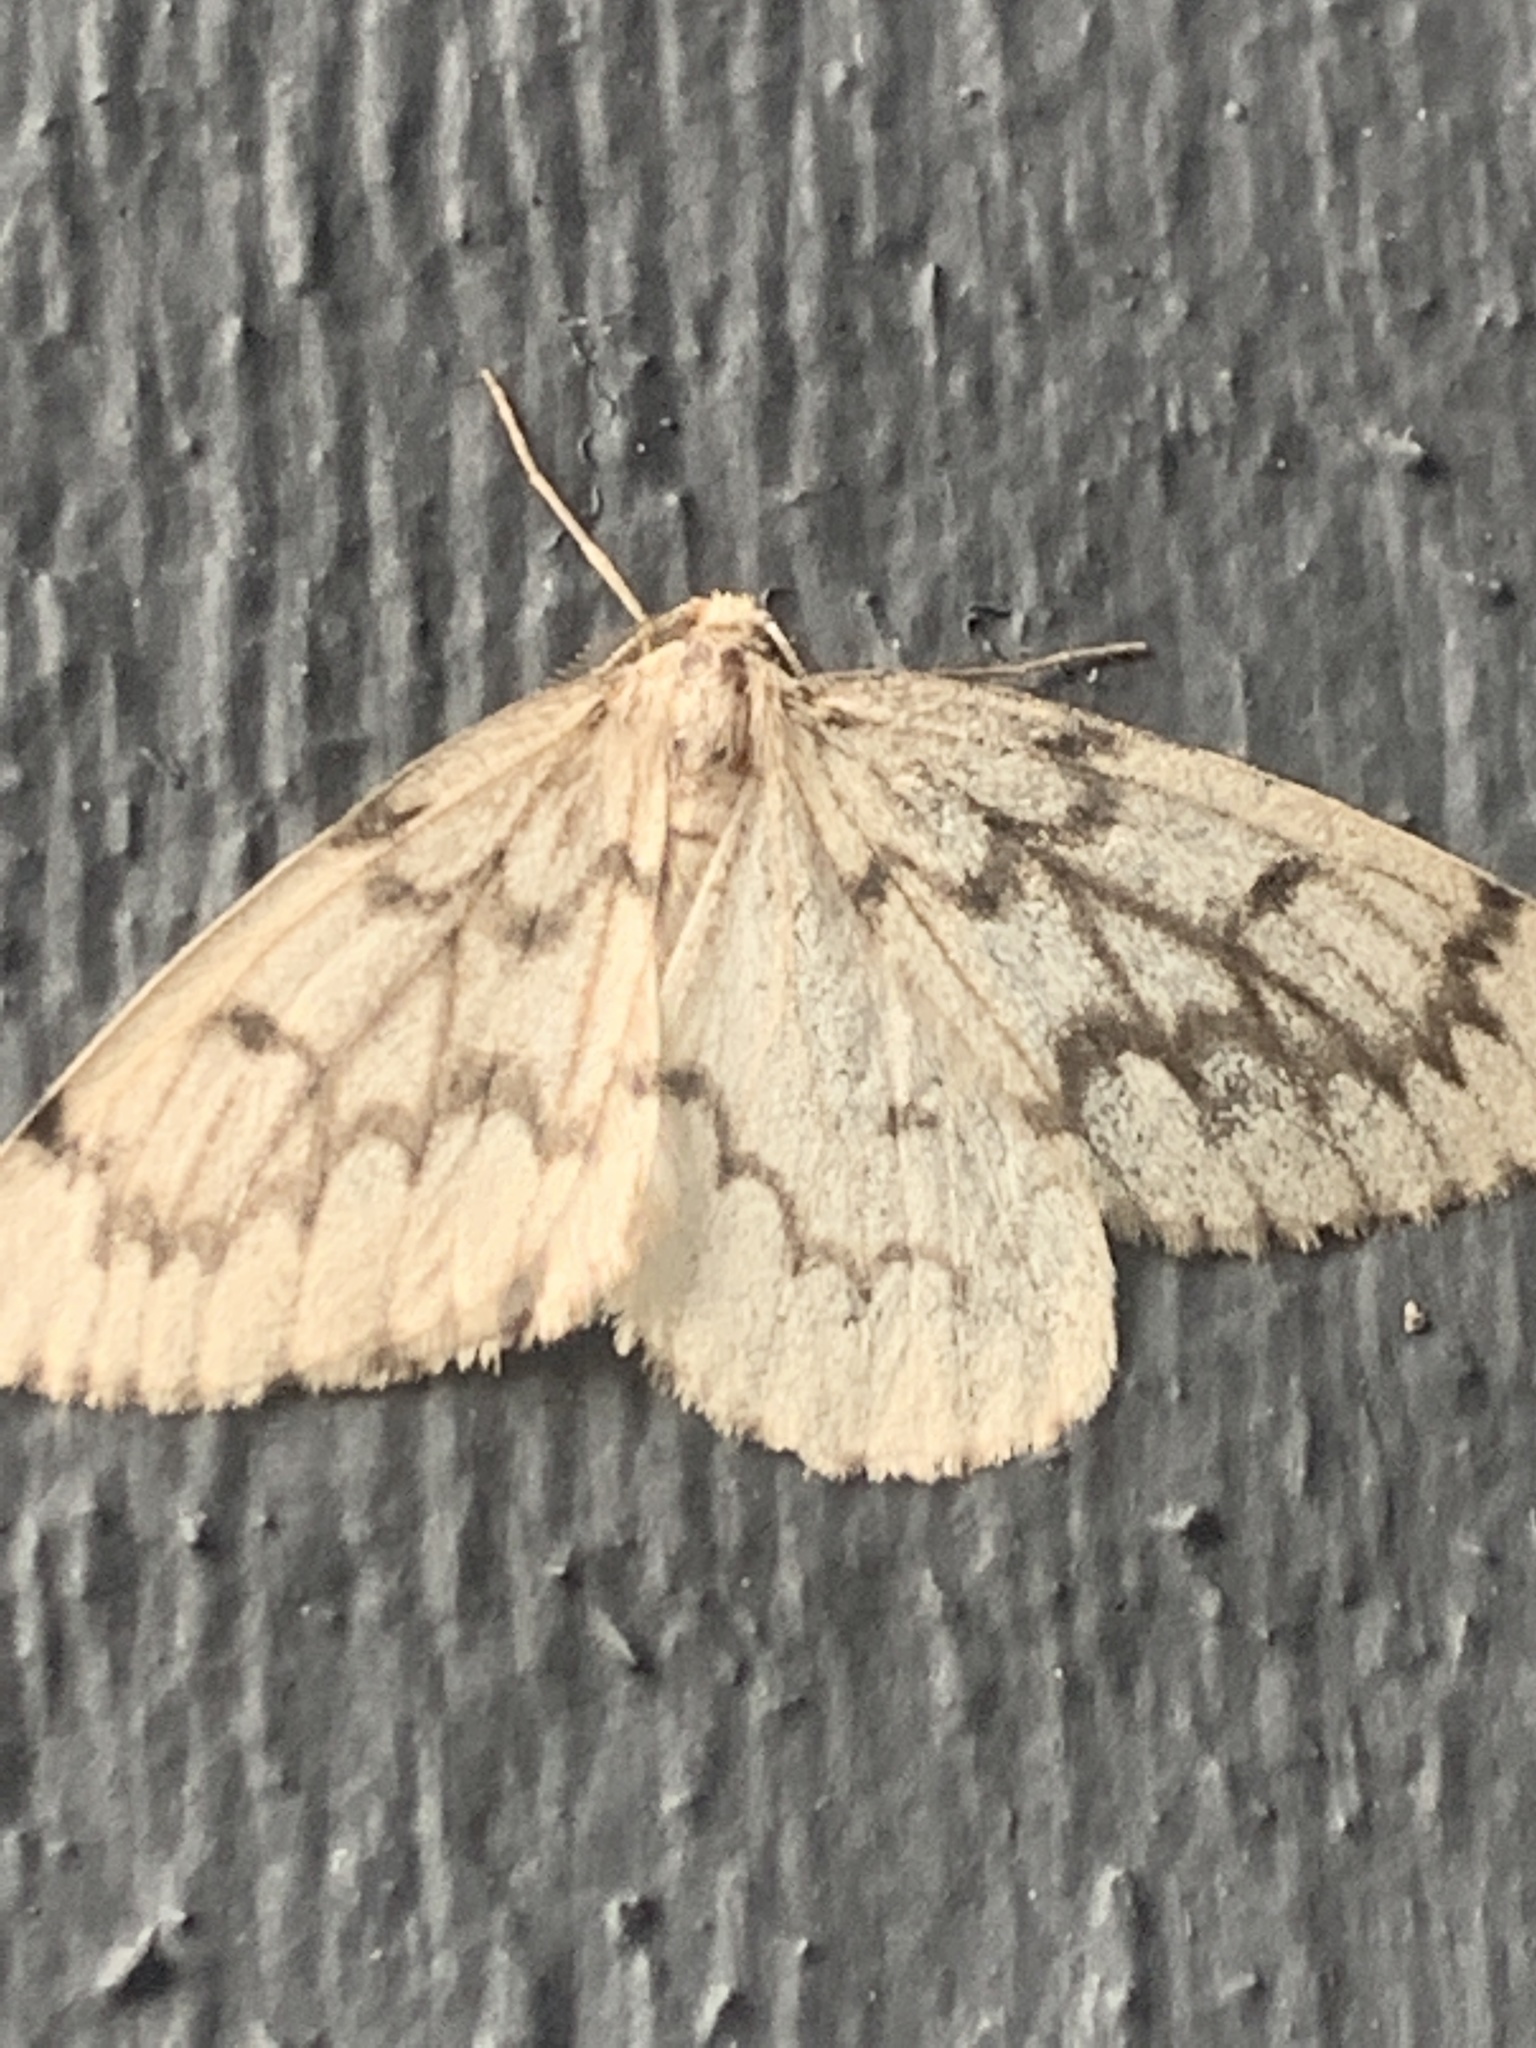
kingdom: Animalia
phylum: Arthropoda
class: Insecta
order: Lepidoptera
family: Geometridae
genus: Nepytia
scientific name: Nepytia phantasmaria
